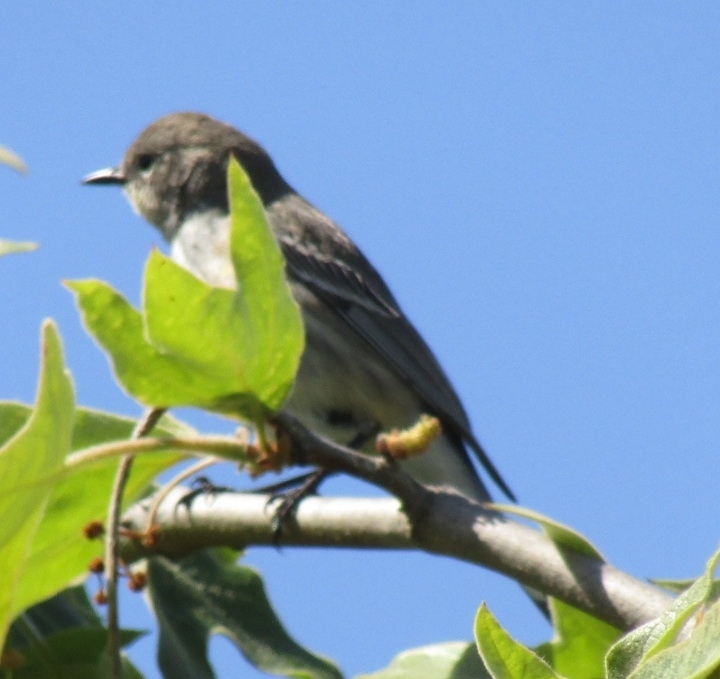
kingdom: Animalia
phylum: Chordata
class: Aves
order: Passeriformes
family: Parulidae
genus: Setophaga
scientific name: Setophaga coronata
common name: Myrtle warbler
